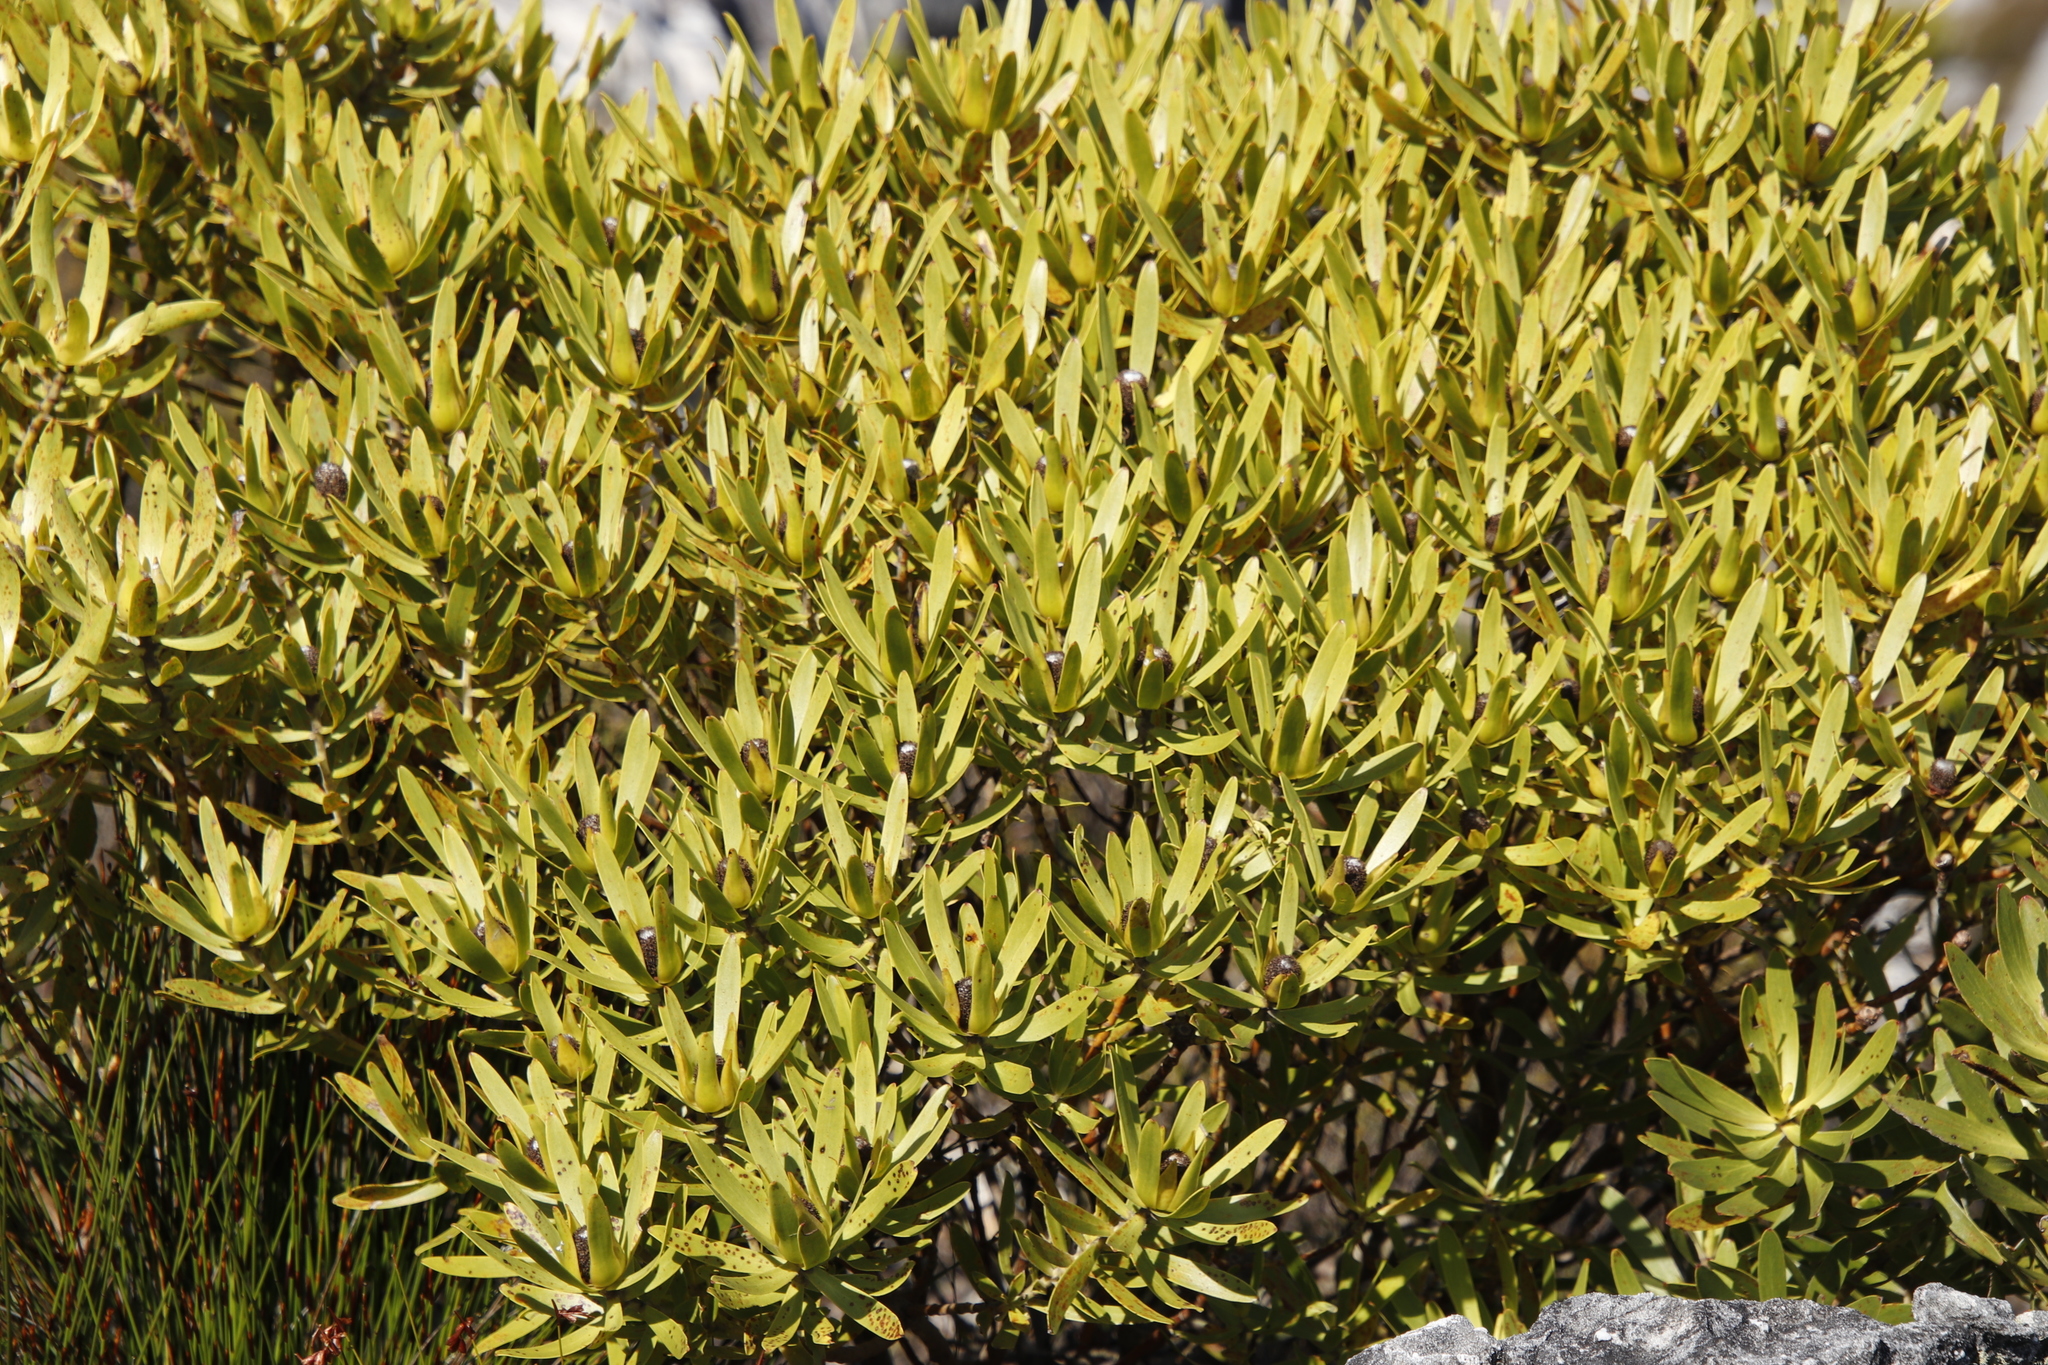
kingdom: Plantae
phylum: Tracheophyta
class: Magnoliopsida
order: Proteales
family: Proteaceae
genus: Leucadendron
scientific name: Leucadendron laureolum
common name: Golden sunshinebush
